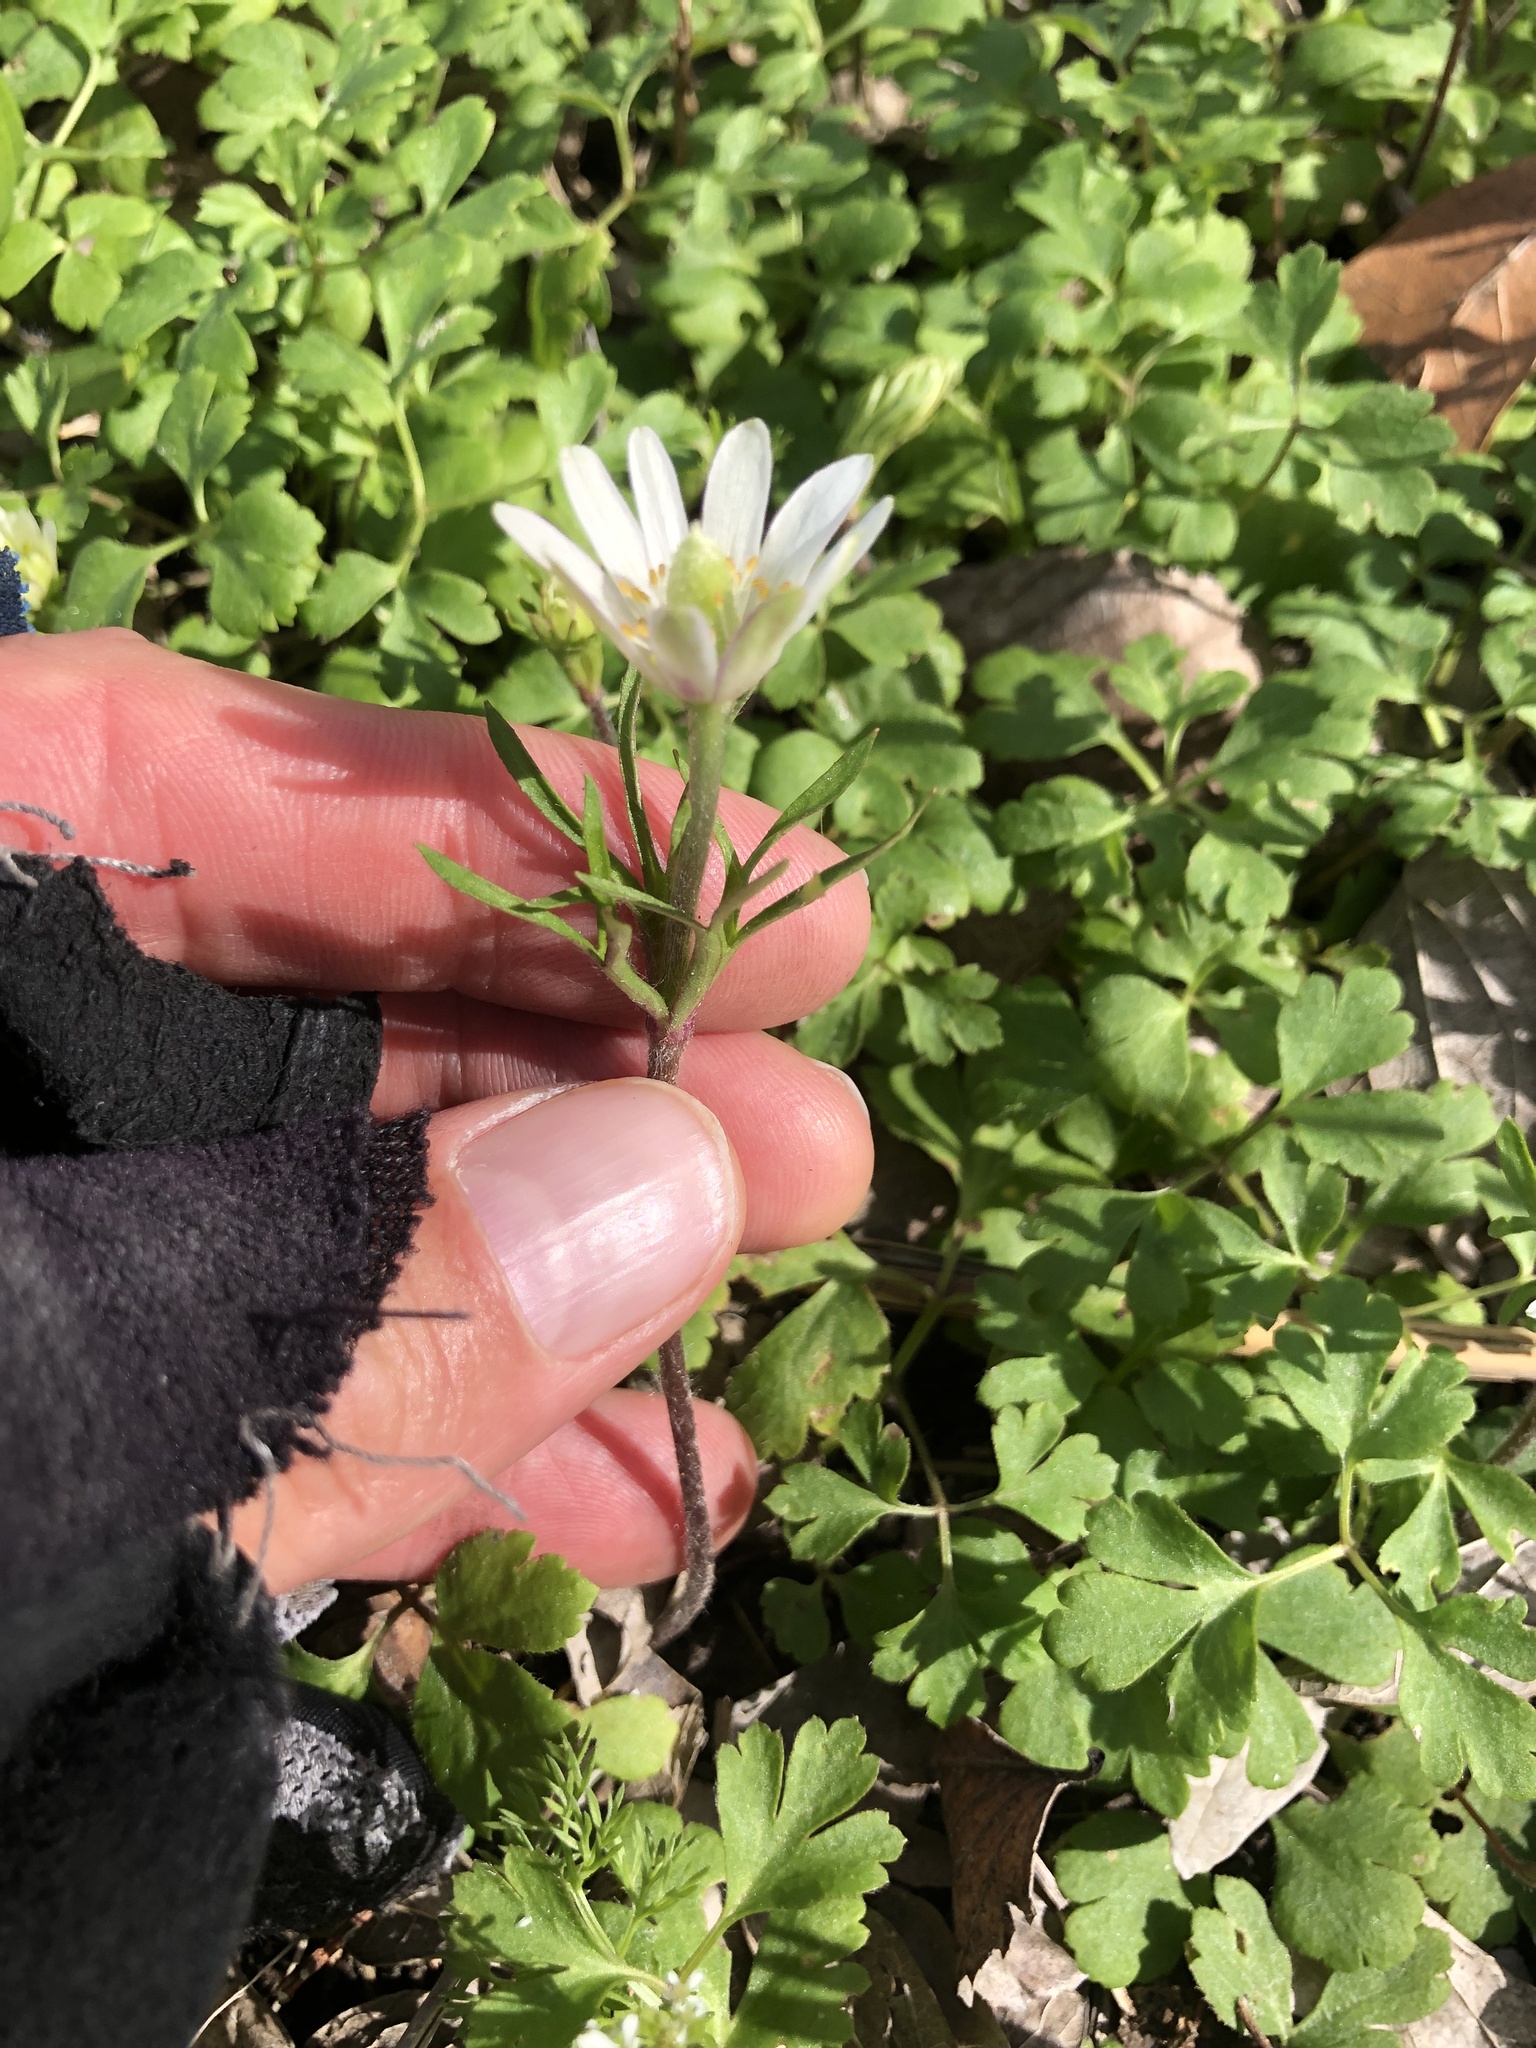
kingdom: Plantae
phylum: Tracheophyta
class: Magnoliopsida
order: Ranunculales
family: Ranunculaceae
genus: Anemone
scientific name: Anemone berlandieri
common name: Ten-petal anemone
